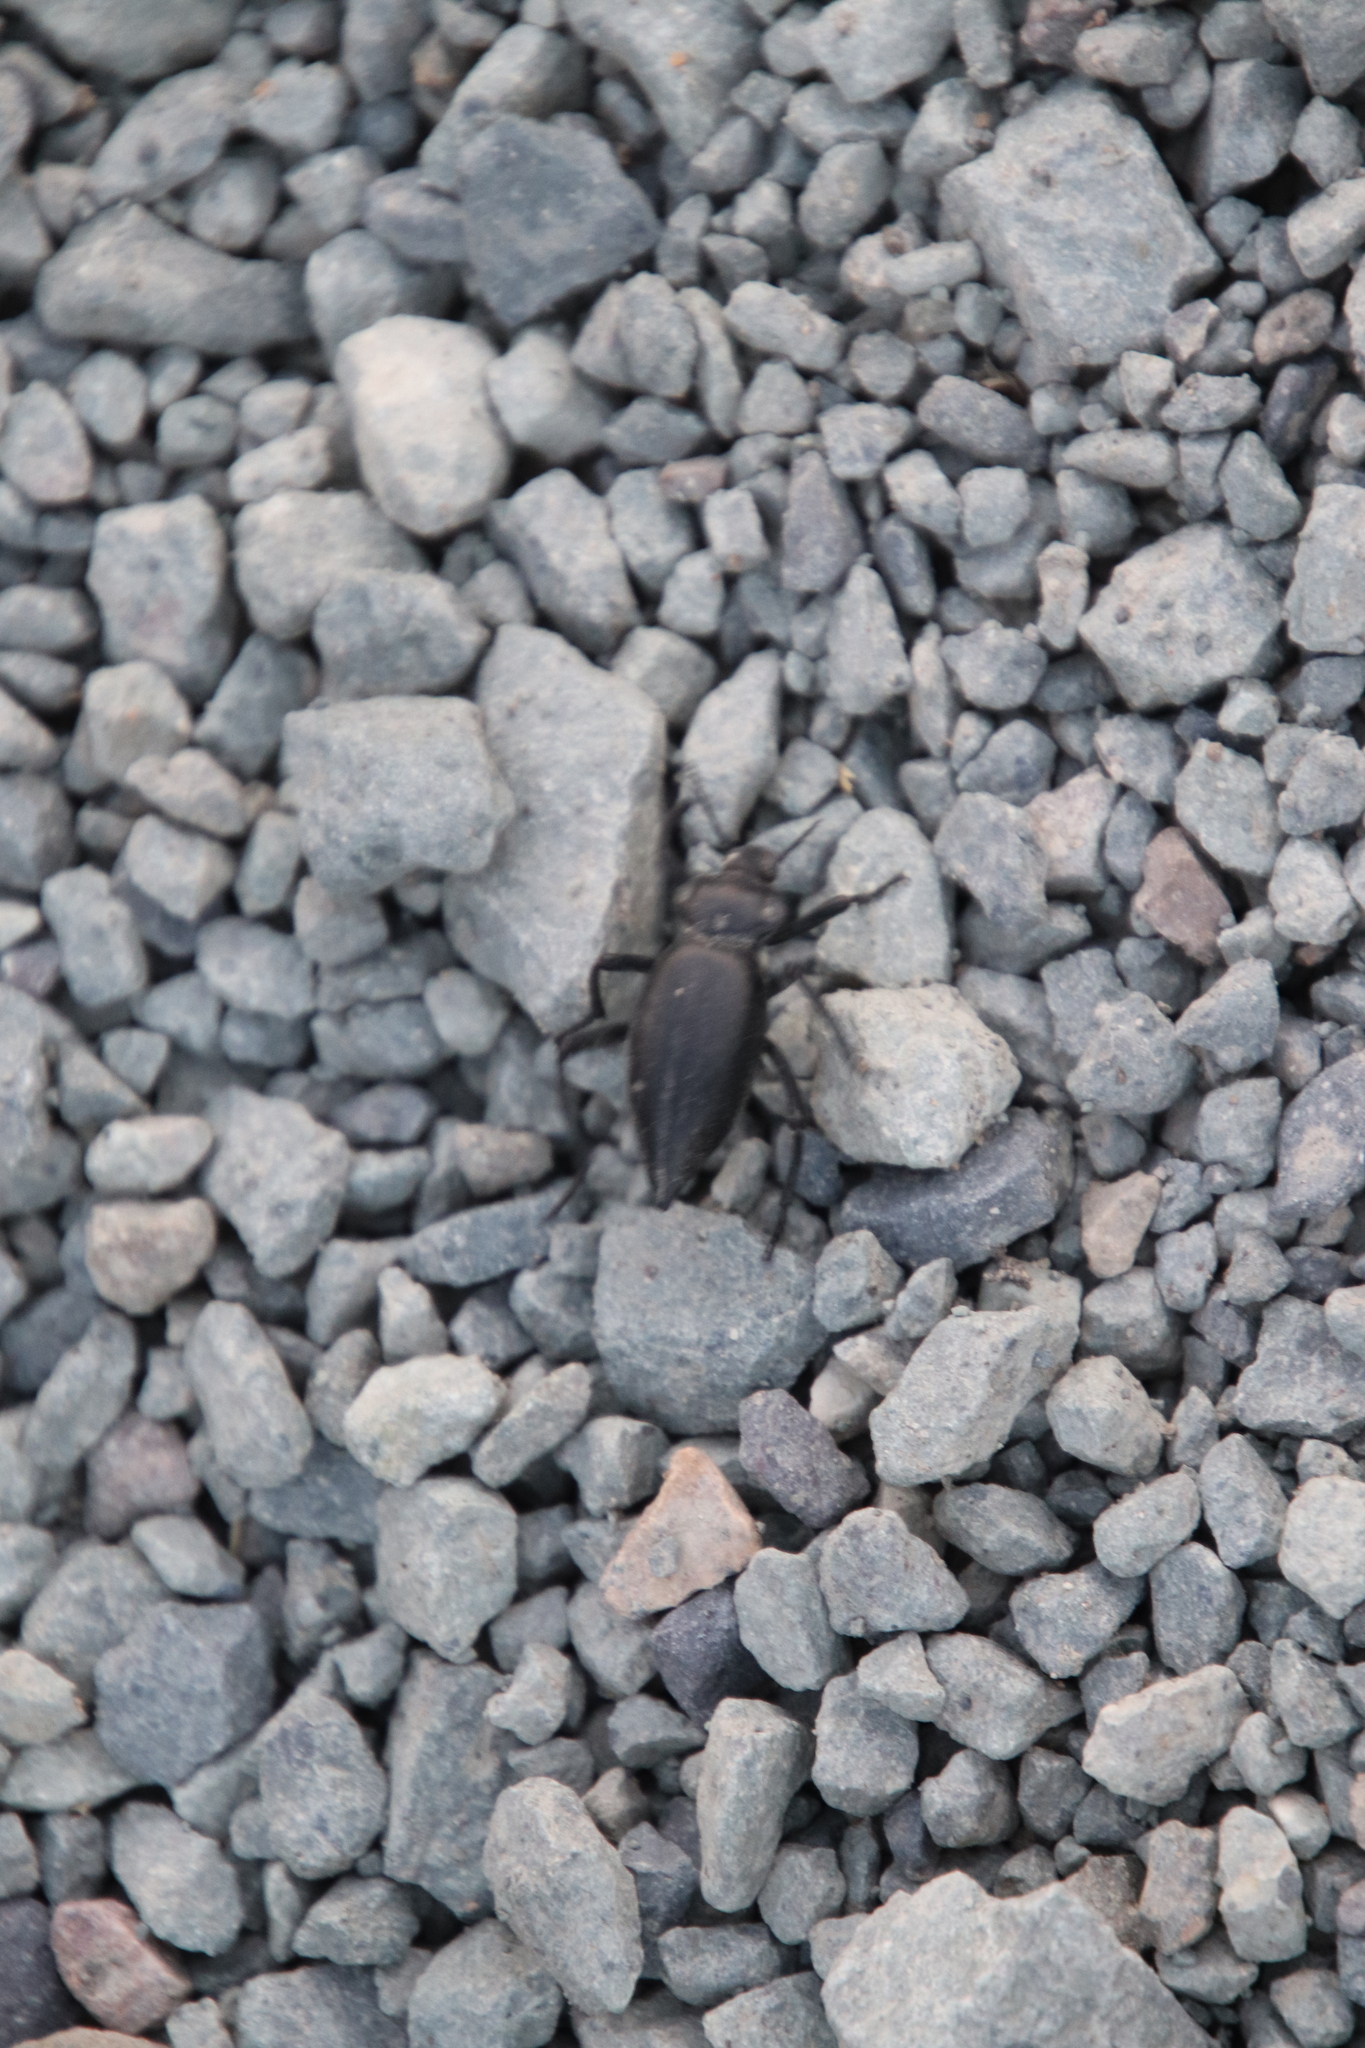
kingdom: Animalia
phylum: Arthropoda
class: Insecta
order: Coleoptera
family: Tenebrionidae
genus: Eleodes
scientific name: Eleodes acuticauda
